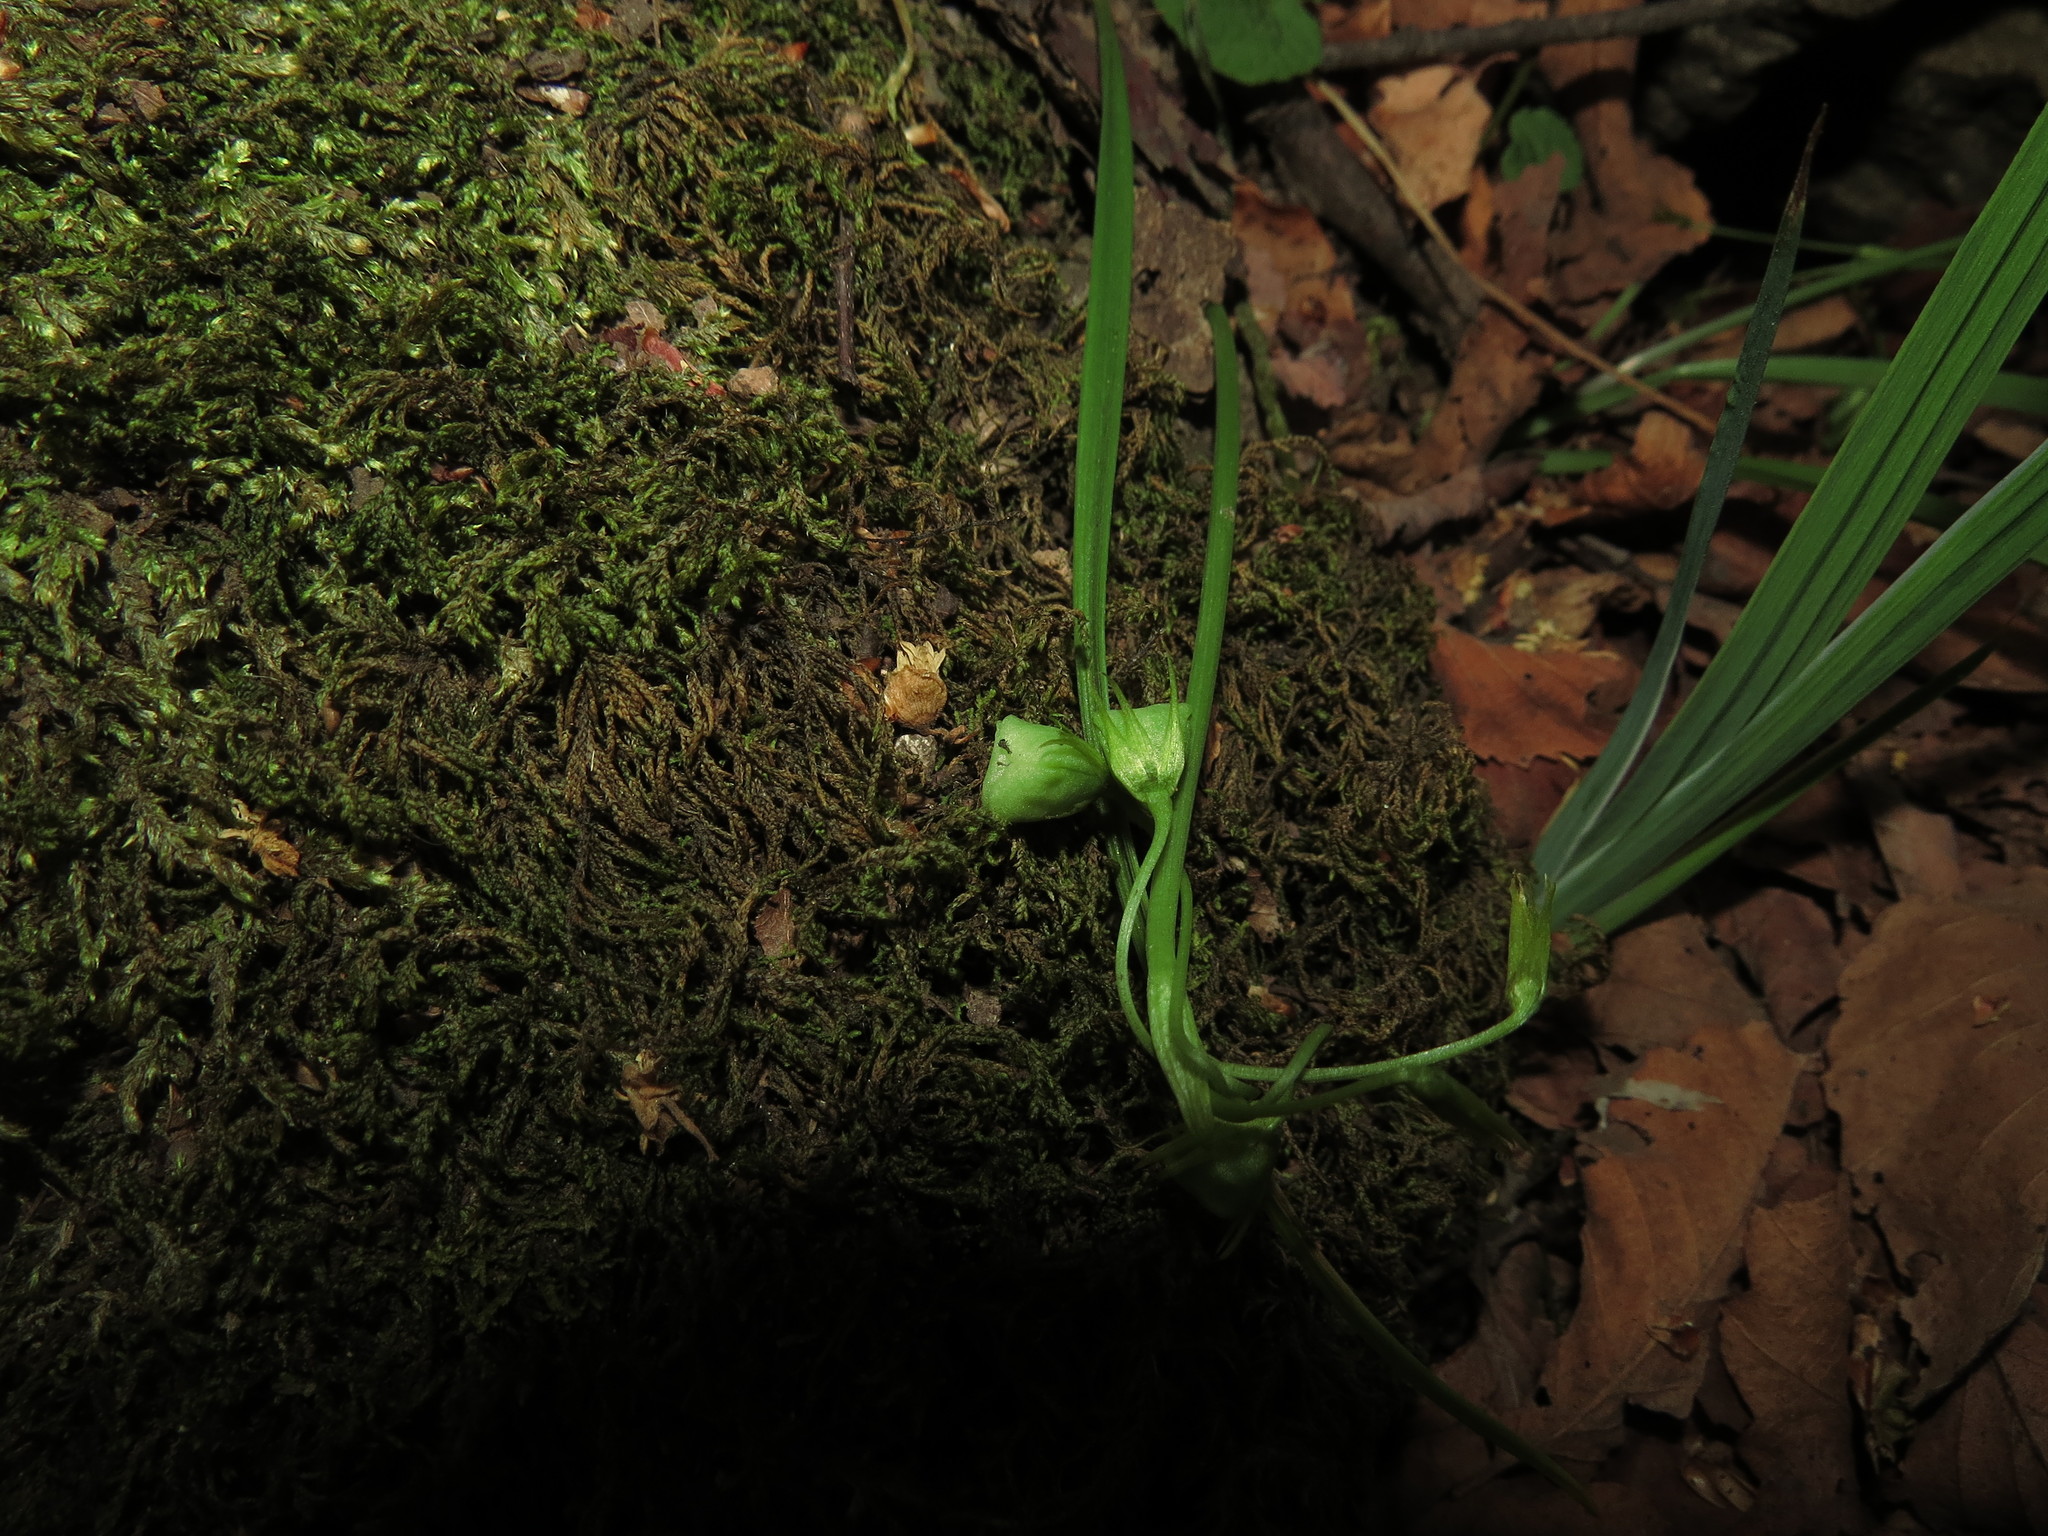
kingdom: Plantae
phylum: Tracheophyta
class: Liliopsida
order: Asparagales
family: Amaryllidaceae
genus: Miersia
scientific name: Miersia chilensis
